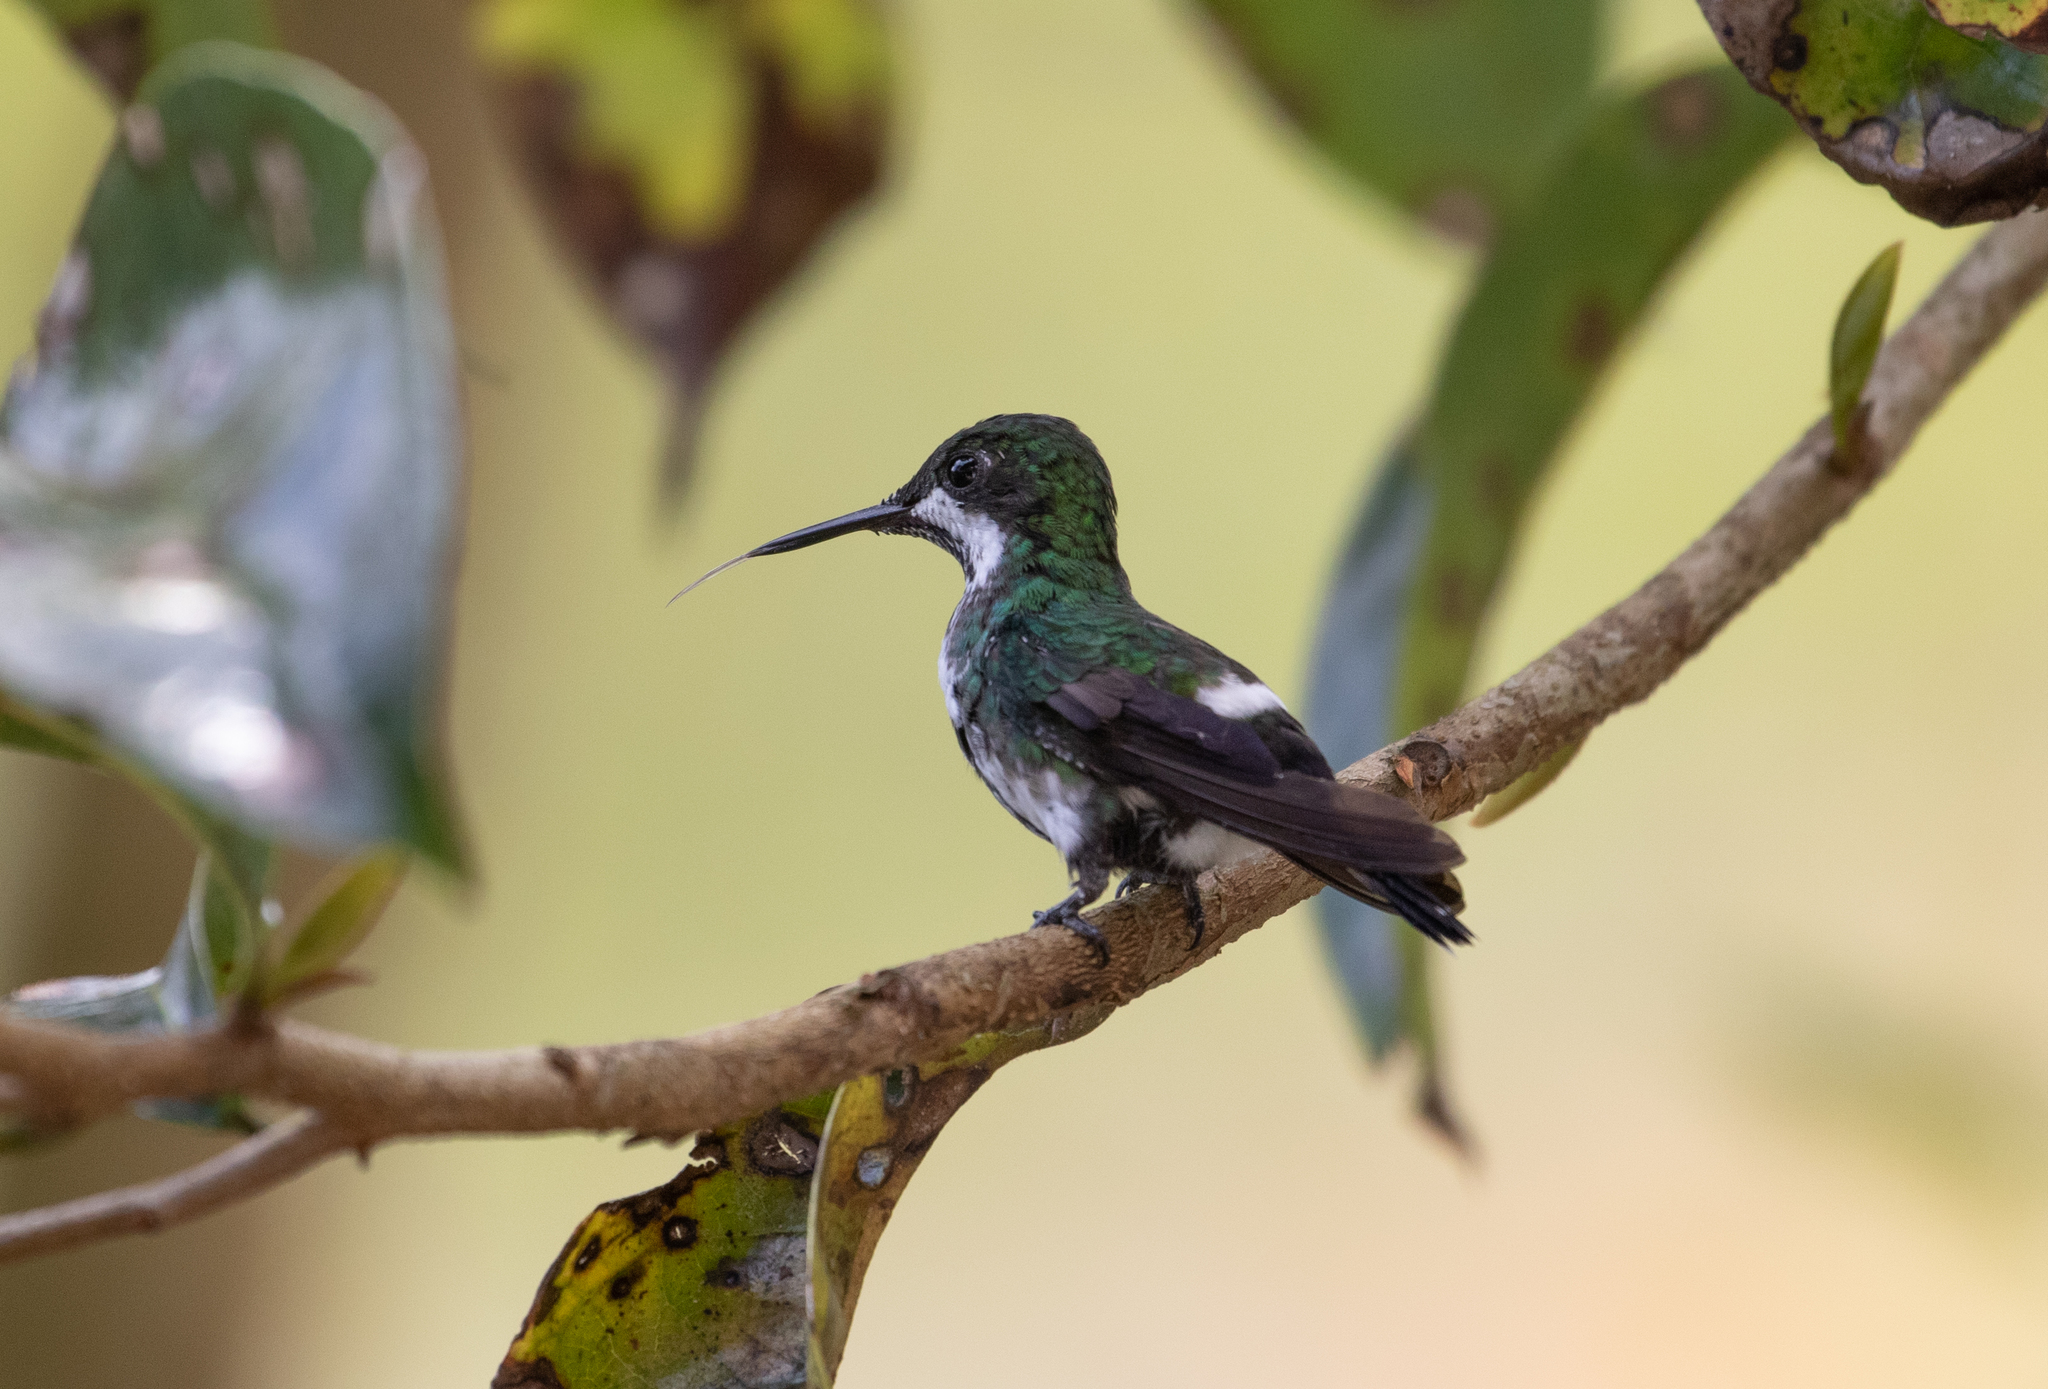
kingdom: Animalia
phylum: Chordata
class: Aves
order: Apodiformes
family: Trochilidae
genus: Discosura
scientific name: Discosura conversii
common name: Green thorntail
